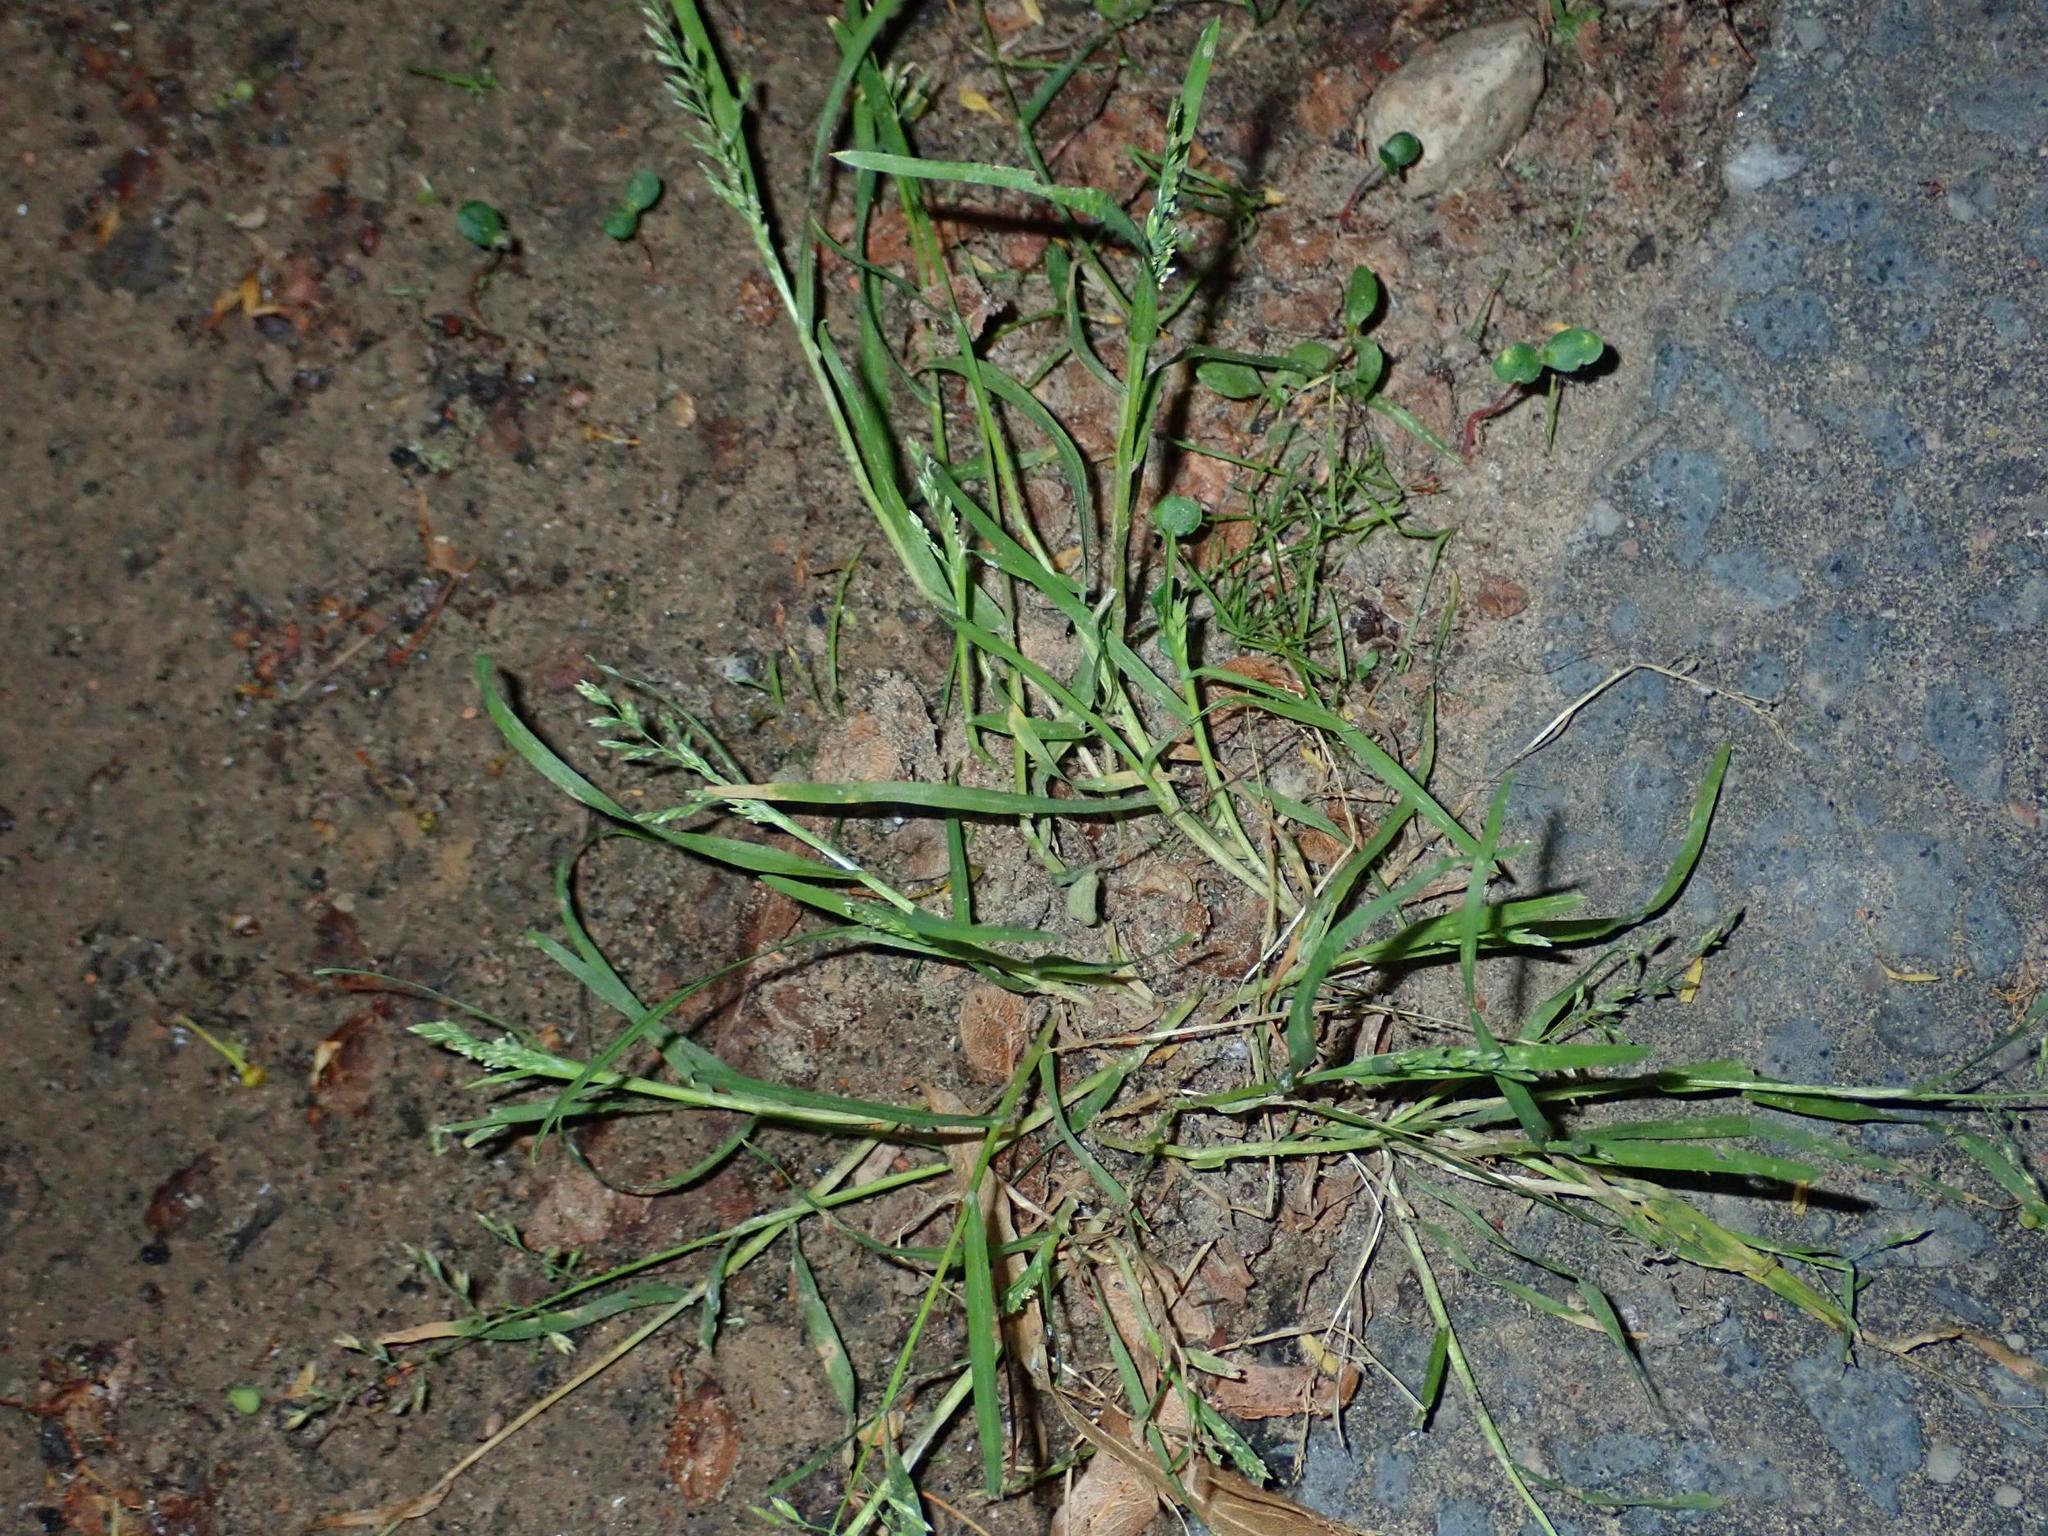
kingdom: Plantae
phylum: Tracheophyta
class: Liliopsida
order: Poales
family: Poaceae
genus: Poa
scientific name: Poa annua
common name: Annual bluegrass
